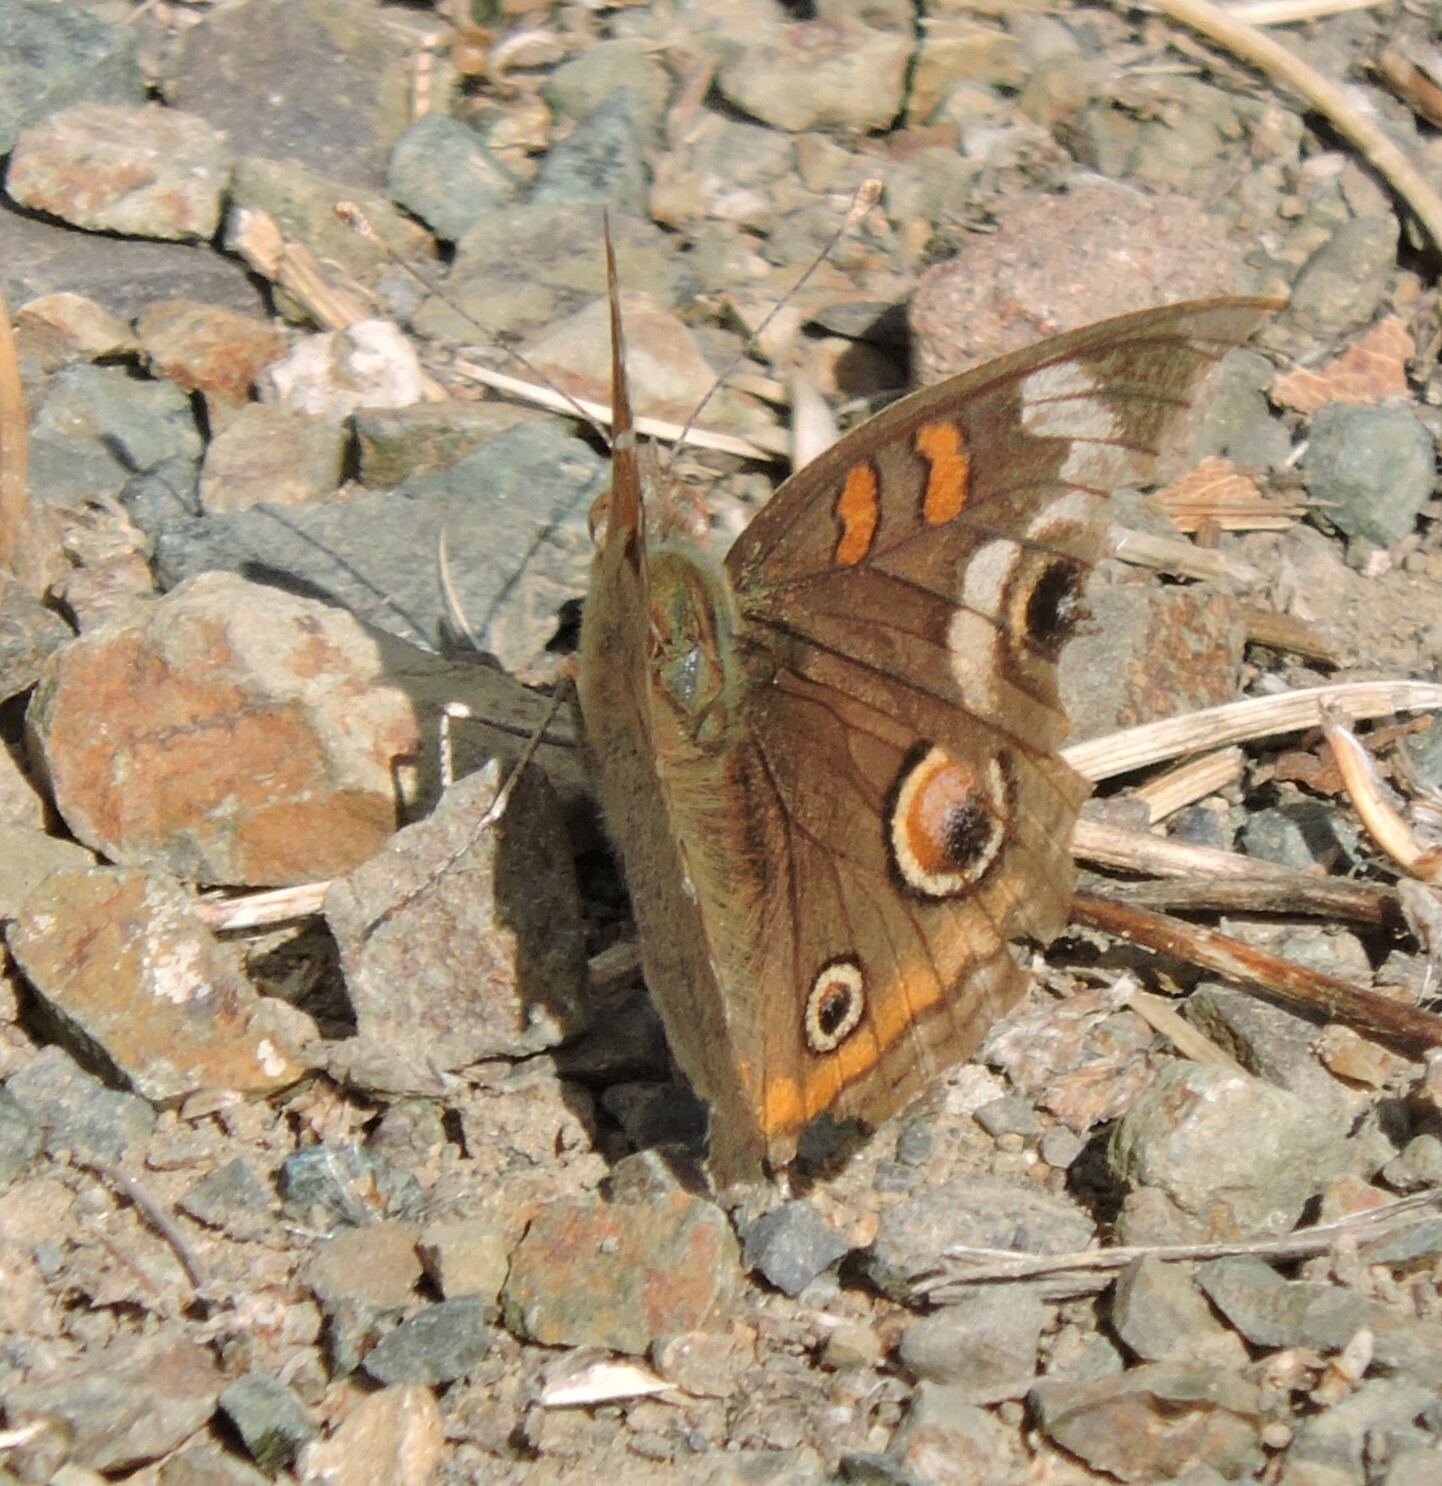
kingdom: Animalia
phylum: Arthropoda
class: Insecta
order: Lepidoptera
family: Nymphalidae
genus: Junonia
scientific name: Junonia grisea
